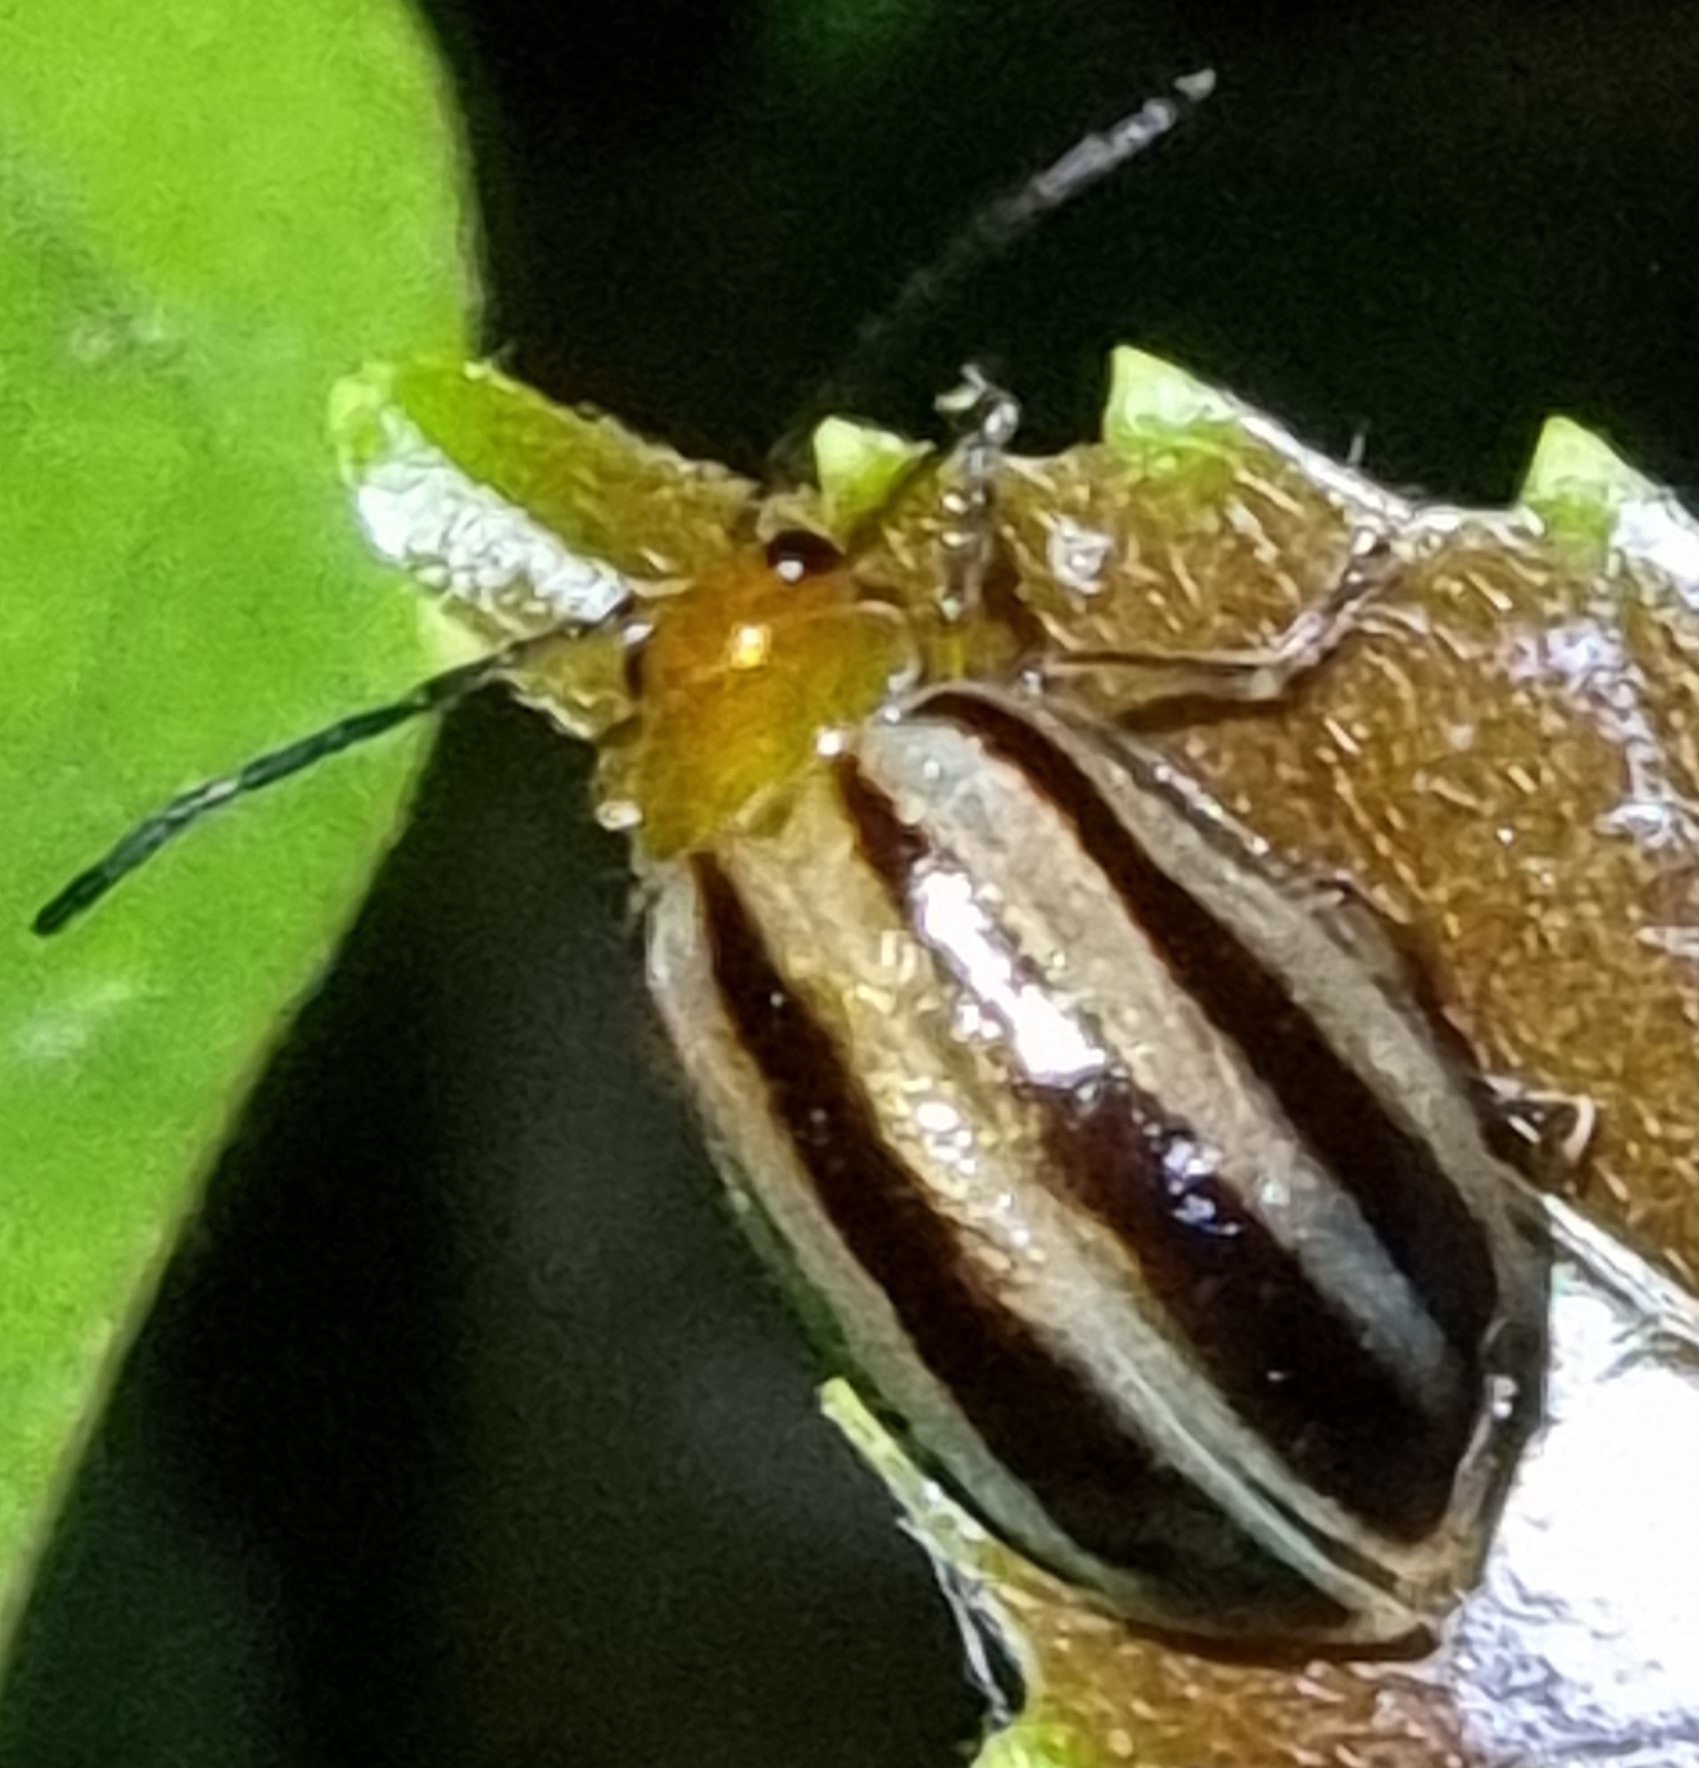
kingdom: Animalia
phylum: Arthropoda
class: Insecta
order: Coleoptera
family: Chrysomelidae
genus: Oides
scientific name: Oides
